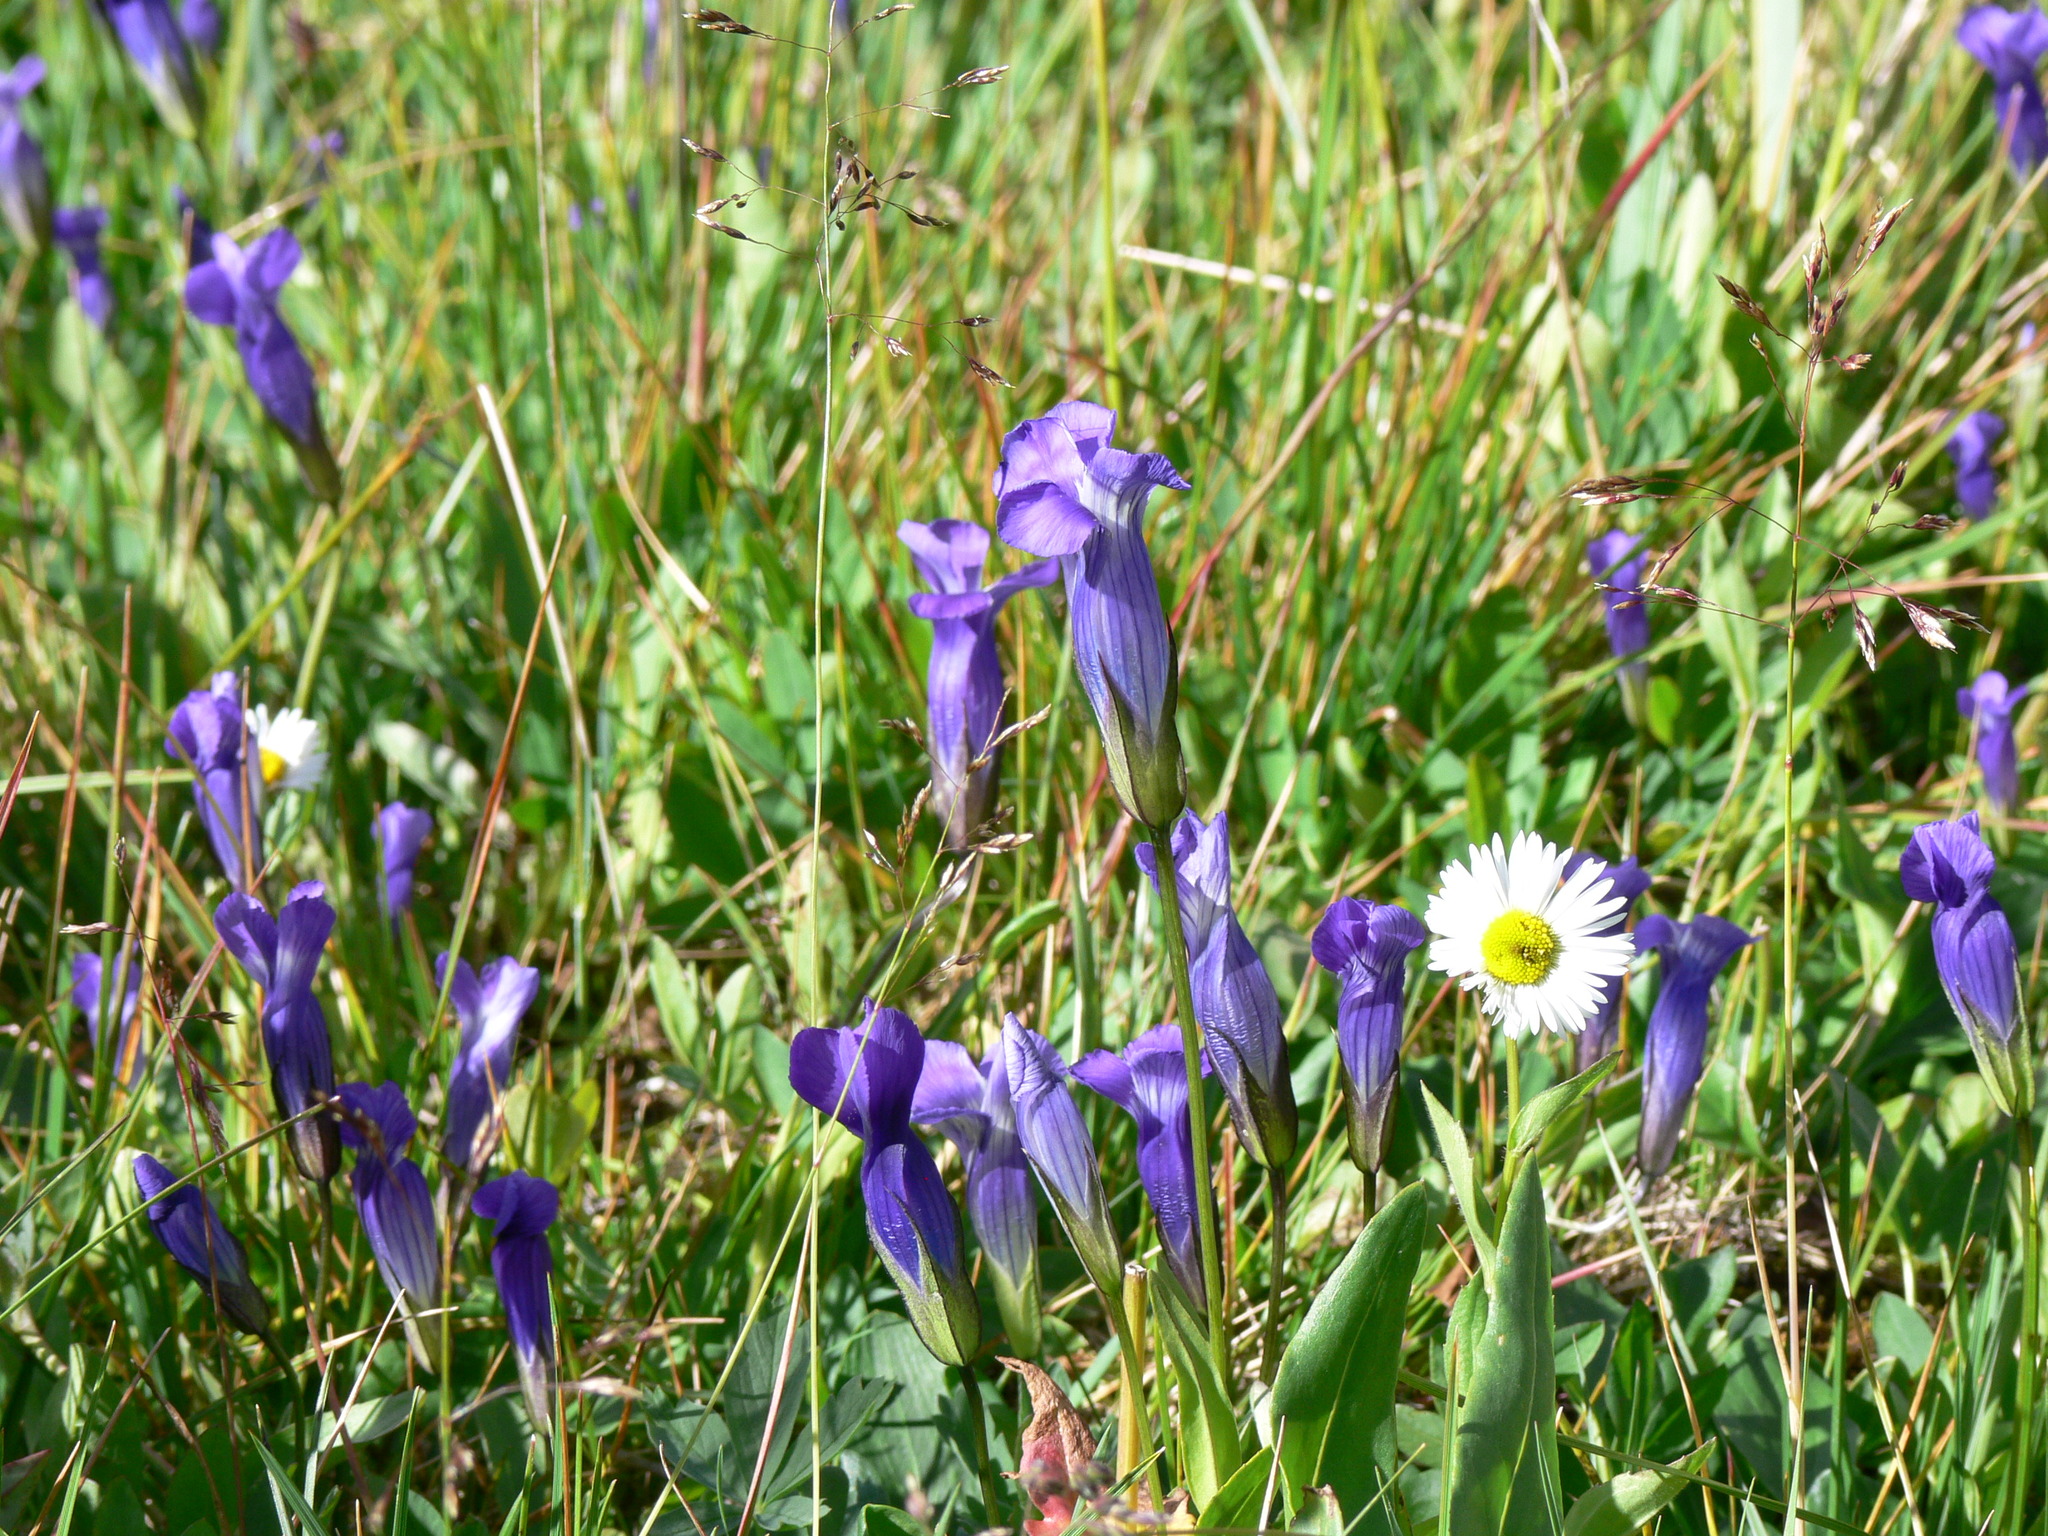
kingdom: Plantae
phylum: Tracheophyta
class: Magnoliopsida
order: Gentianales
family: Gentianaceae
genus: Gentianopsis
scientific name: Gentianopsis thermalis
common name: Rocky mountain fringed-gentian
